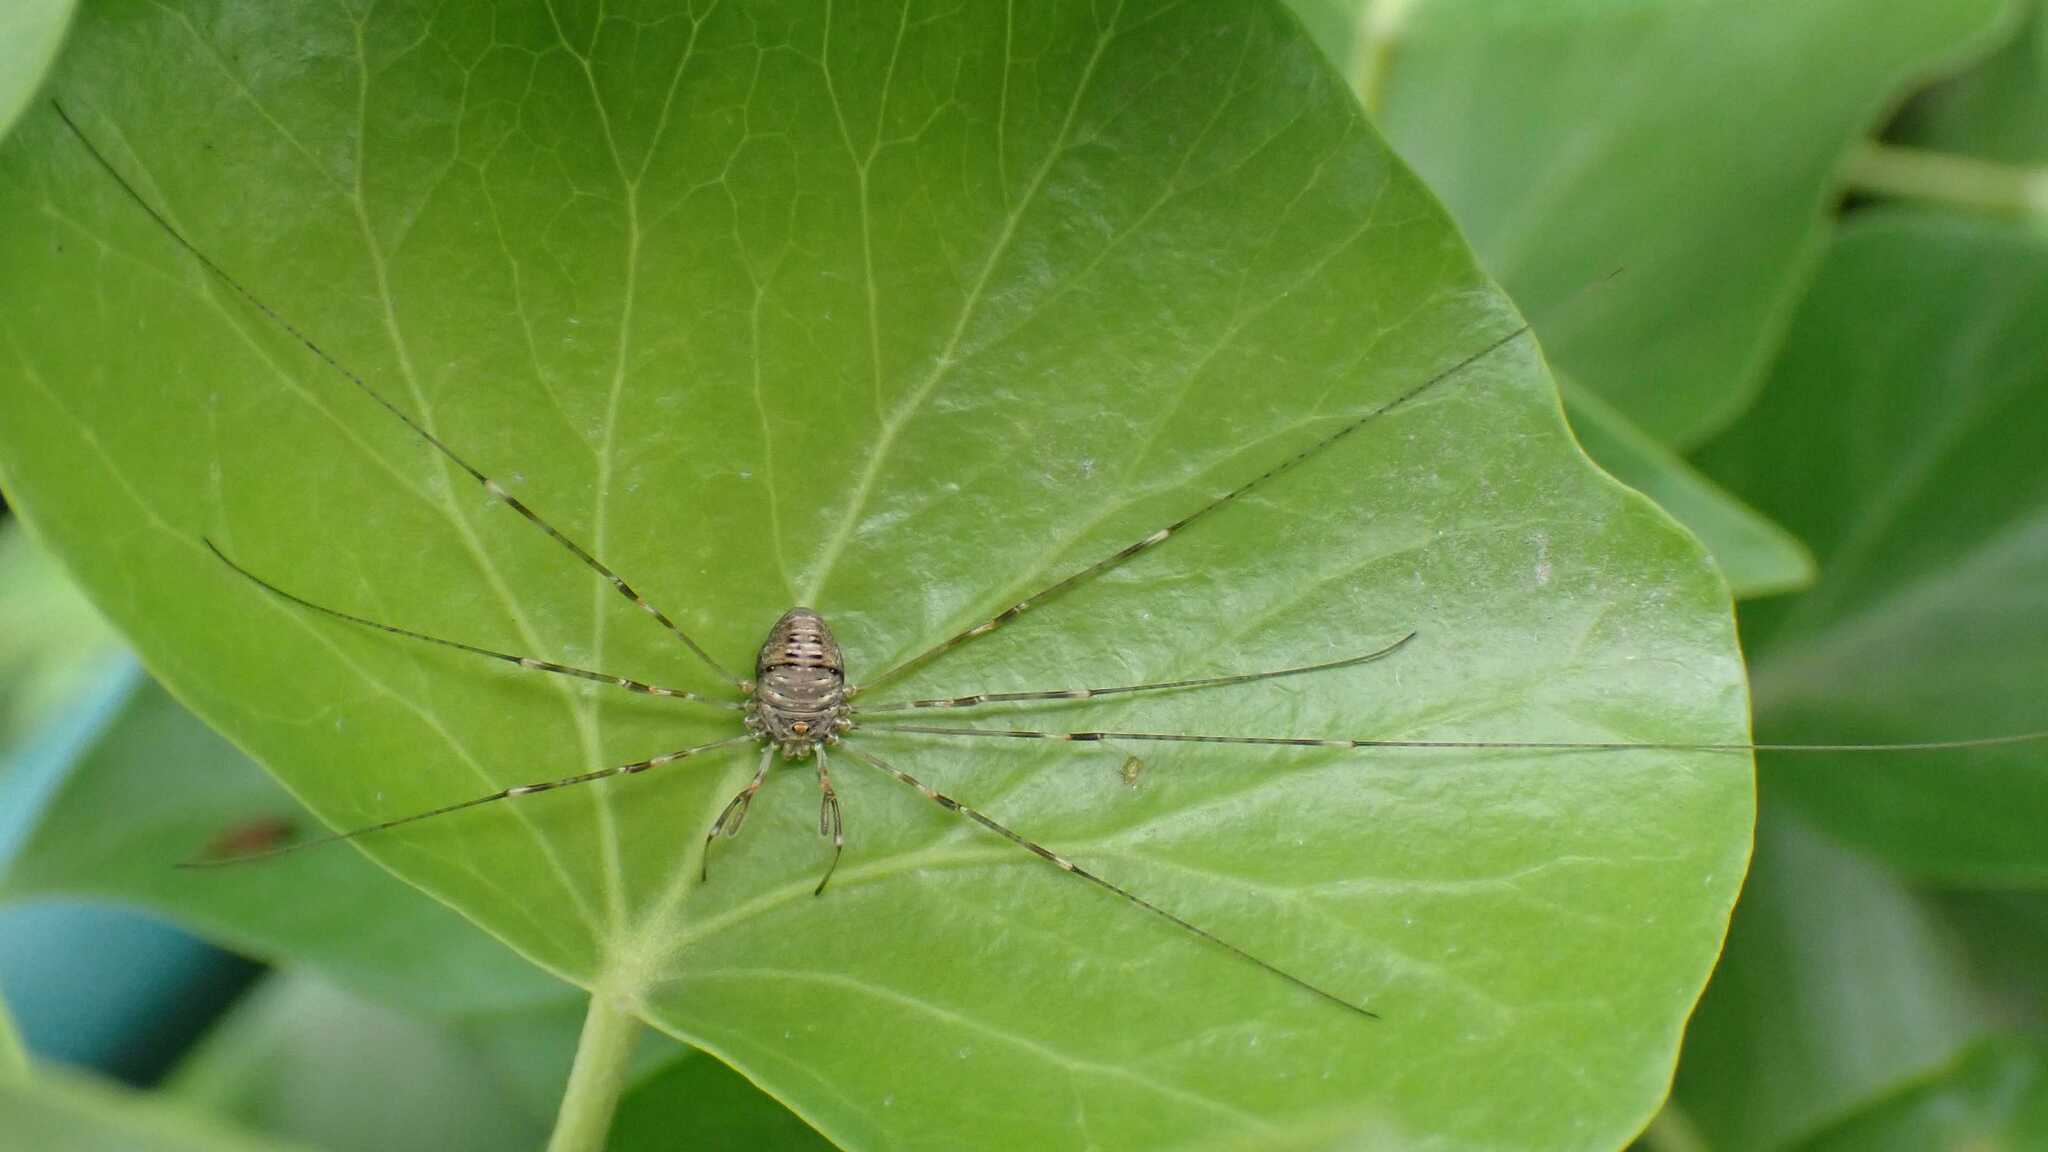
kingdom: Animalia
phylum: Arthropoda
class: Arachnida
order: Opiliones
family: Phalangiidae
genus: Dicranopalpus
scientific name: Dicranopalpus ramosus
